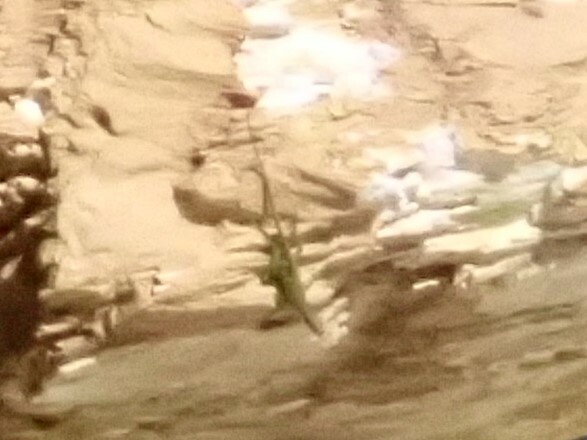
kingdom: Animalia
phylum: Chordata
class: Squamata
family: Dactyloidae
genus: Anolis
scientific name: Anolis carolinensis
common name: Green anole
